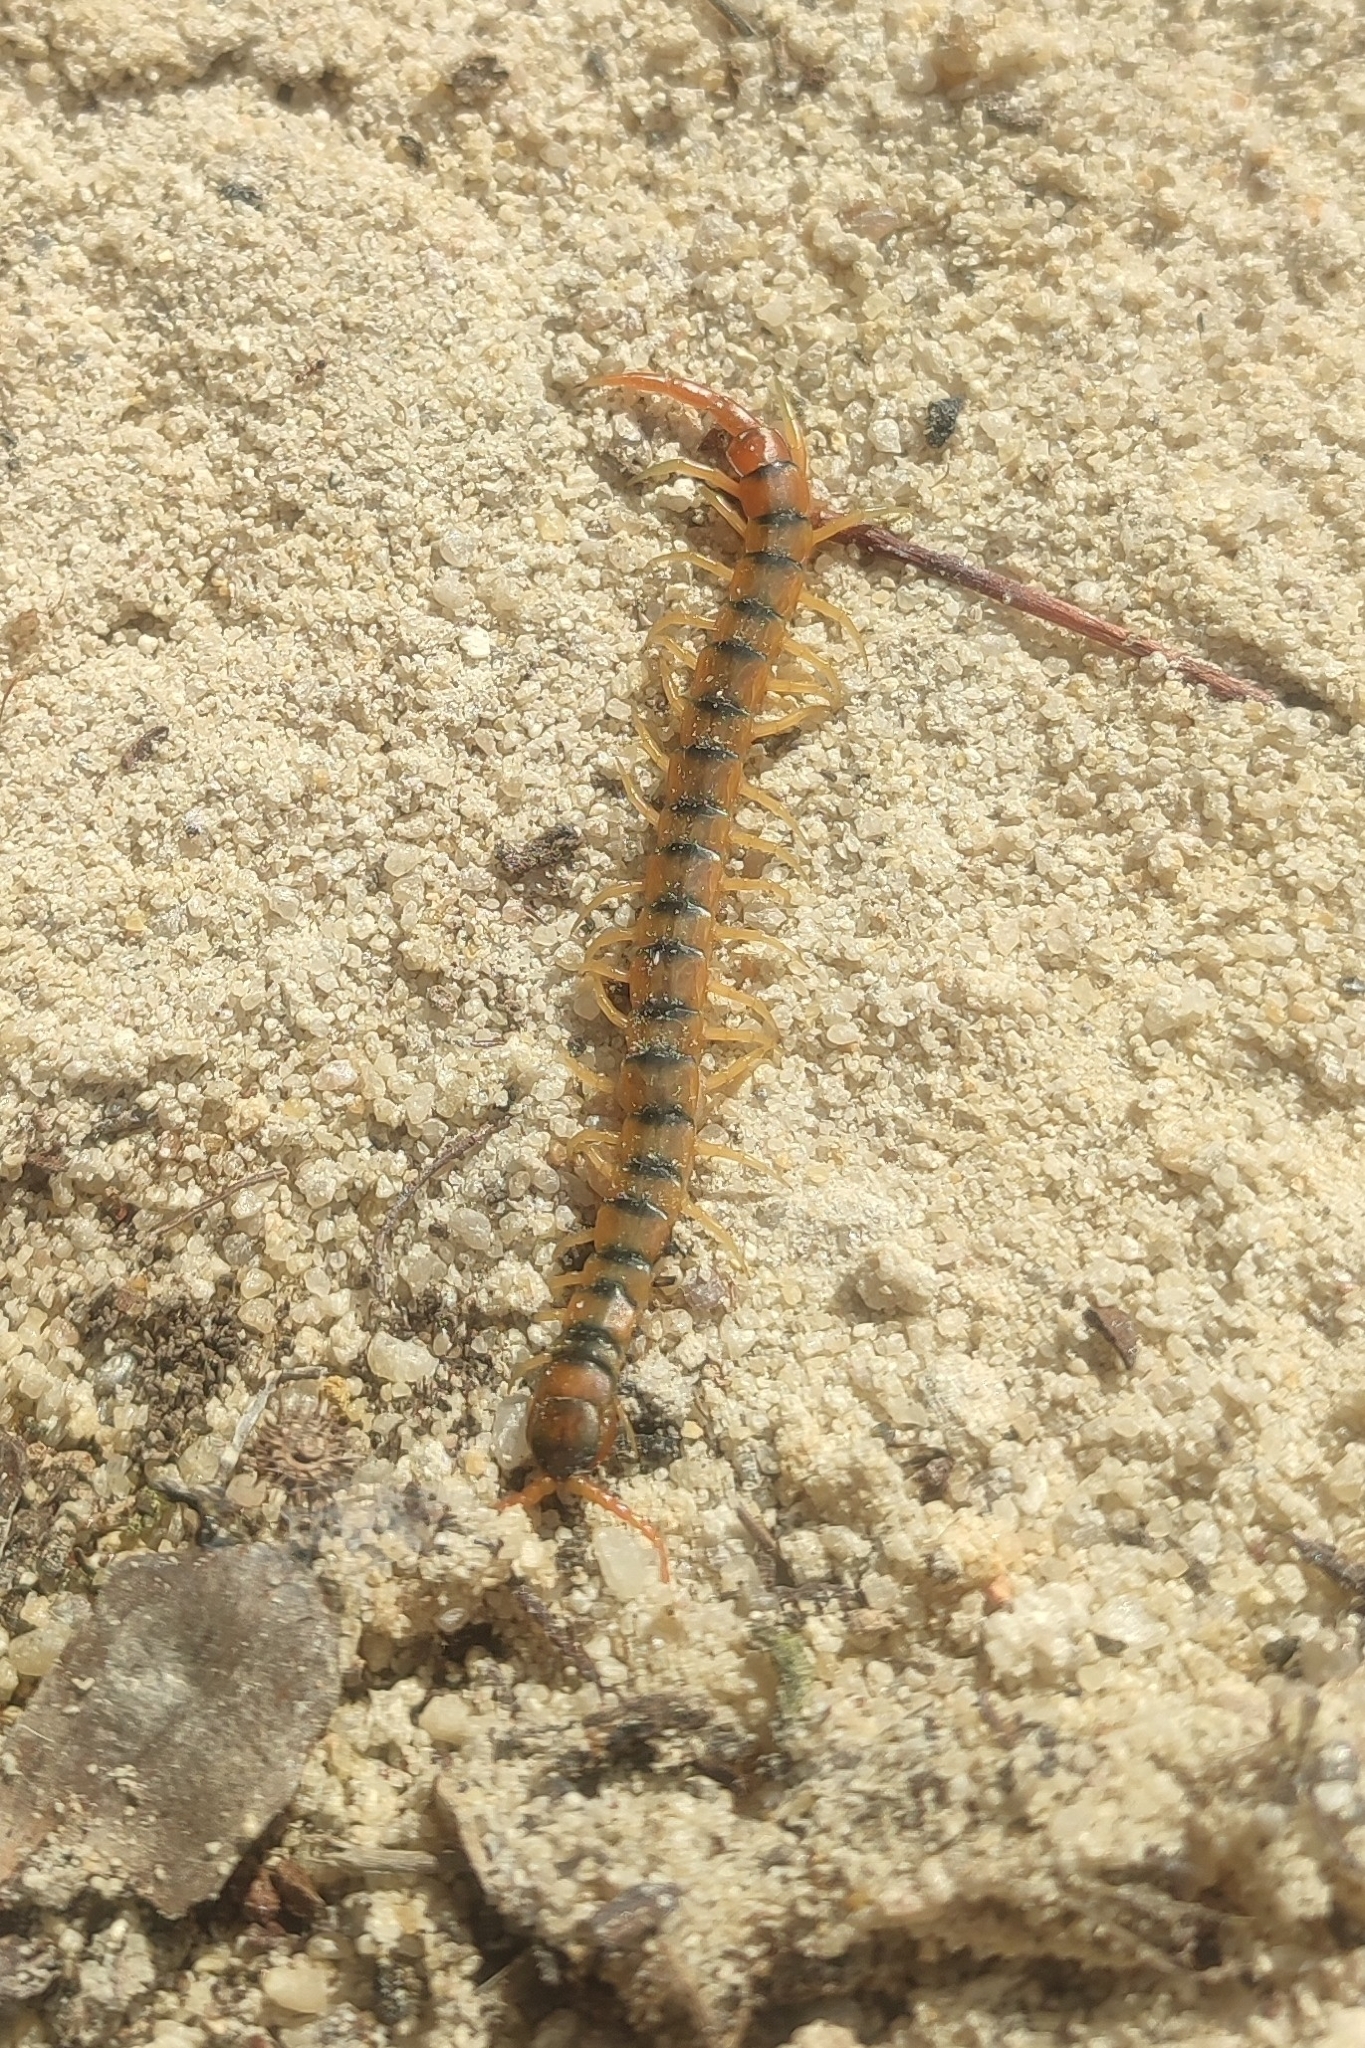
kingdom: Animalia
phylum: Arthropoda
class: Chilopoda
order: Scolopendromorpha
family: Scolopendridae
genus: Scolopendra
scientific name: Scolopendra cingulata
